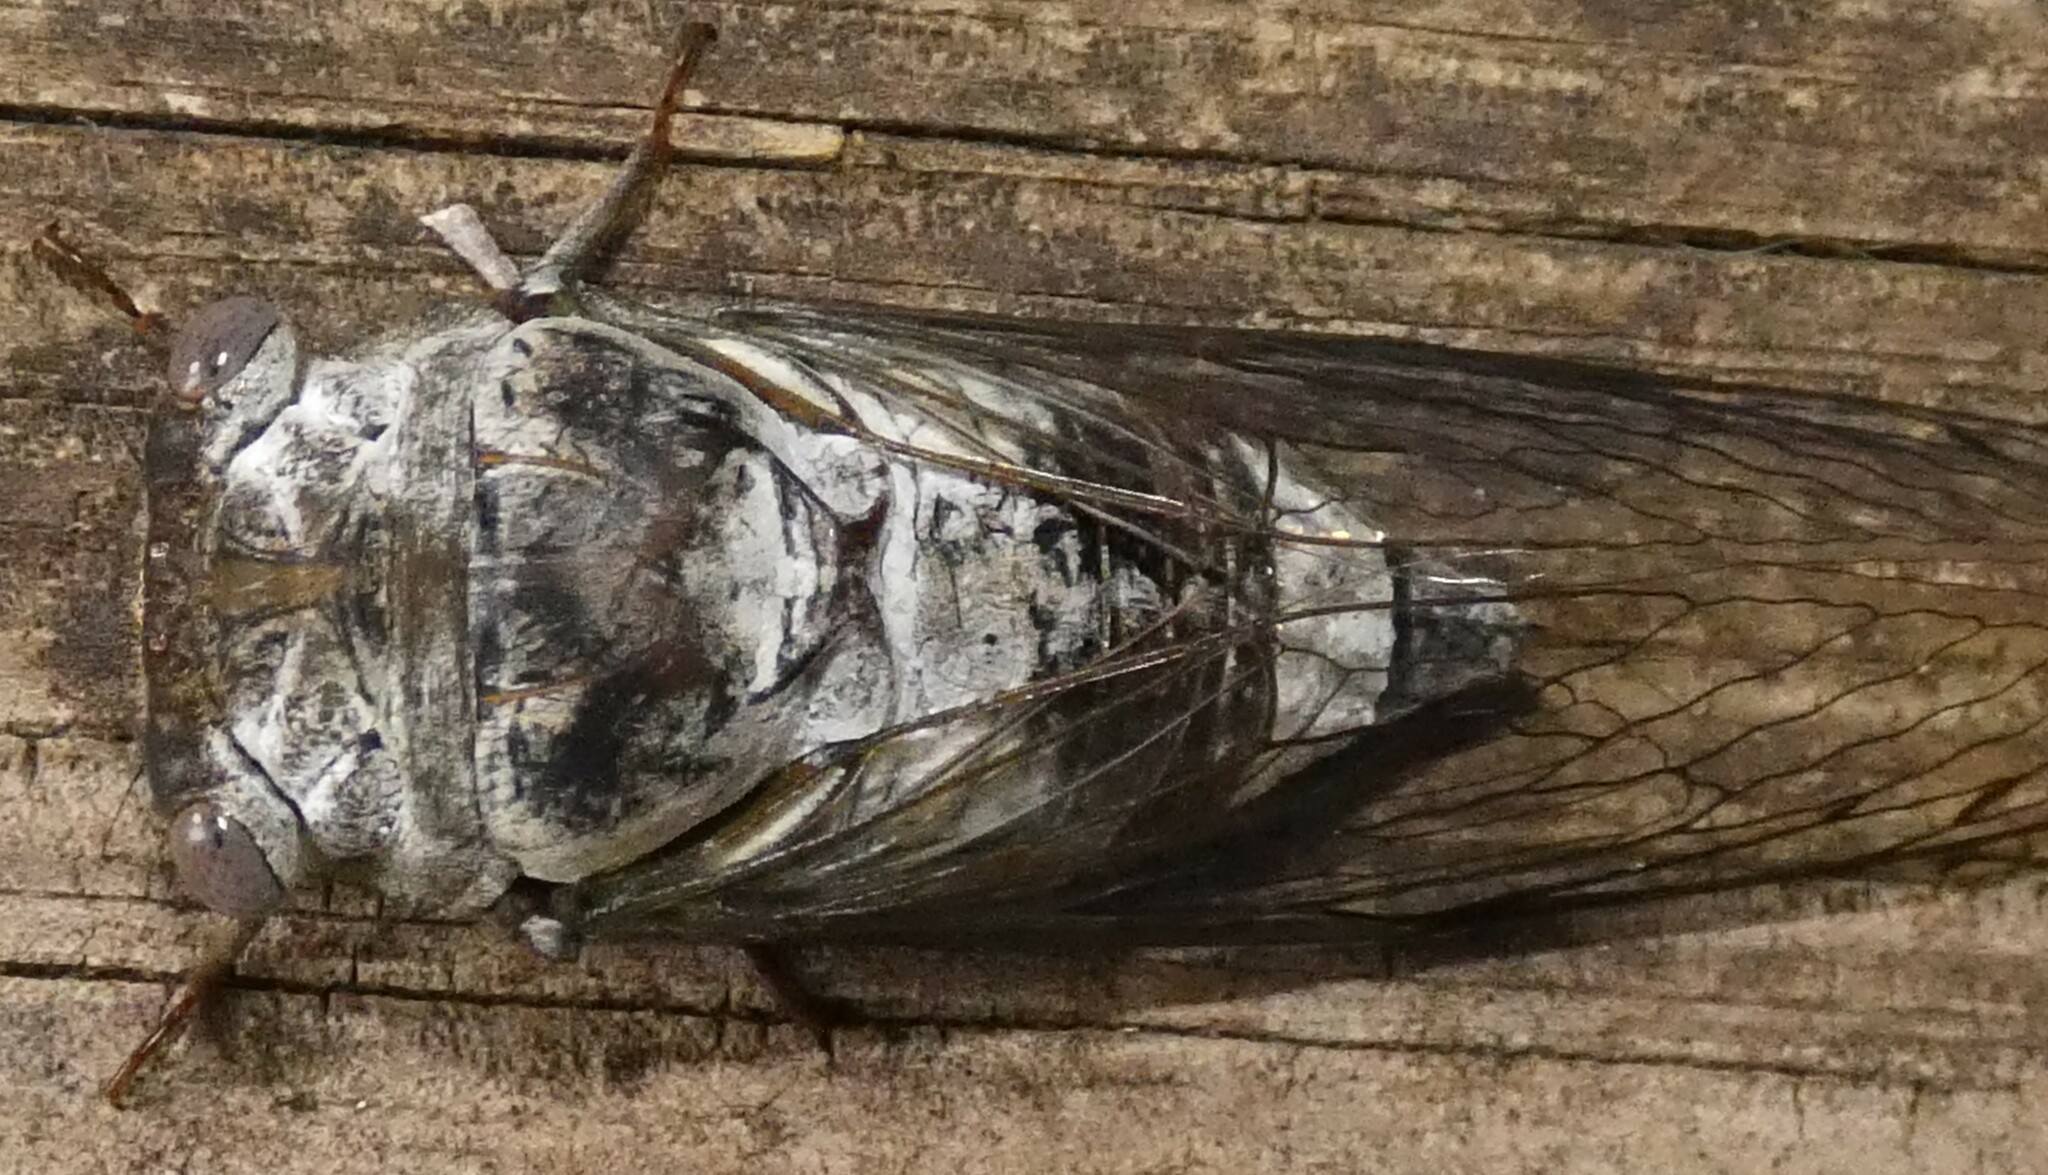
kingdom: Animalia
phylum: Arthropoda
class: Insecta
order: Hemiptera
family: Cicadidae
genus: Diceroprocta
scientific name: Diceroprocta grossa
